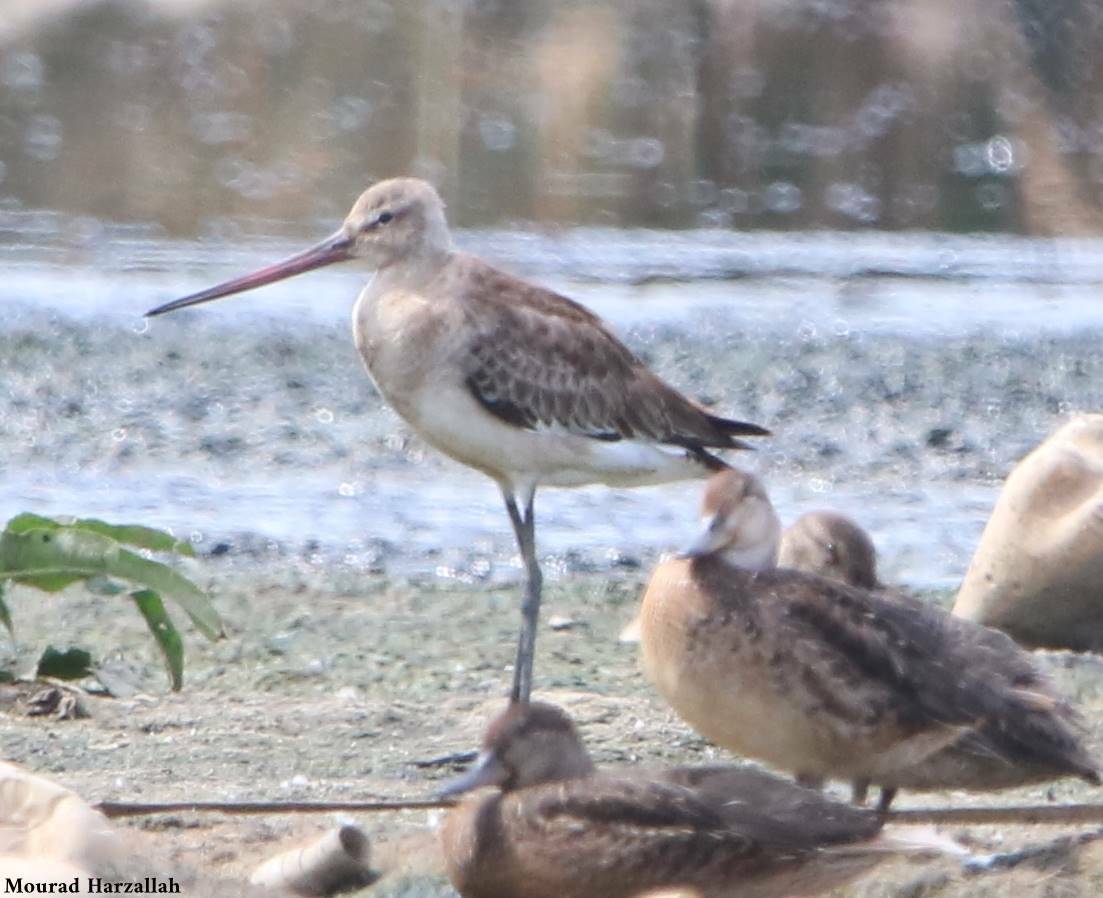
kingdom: Animalia
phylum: Chordata
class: Aves
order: Charadriiformes
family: Scolopacidae
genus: Limosa
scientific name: Limosa limosa
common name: Black-tailed godwit
